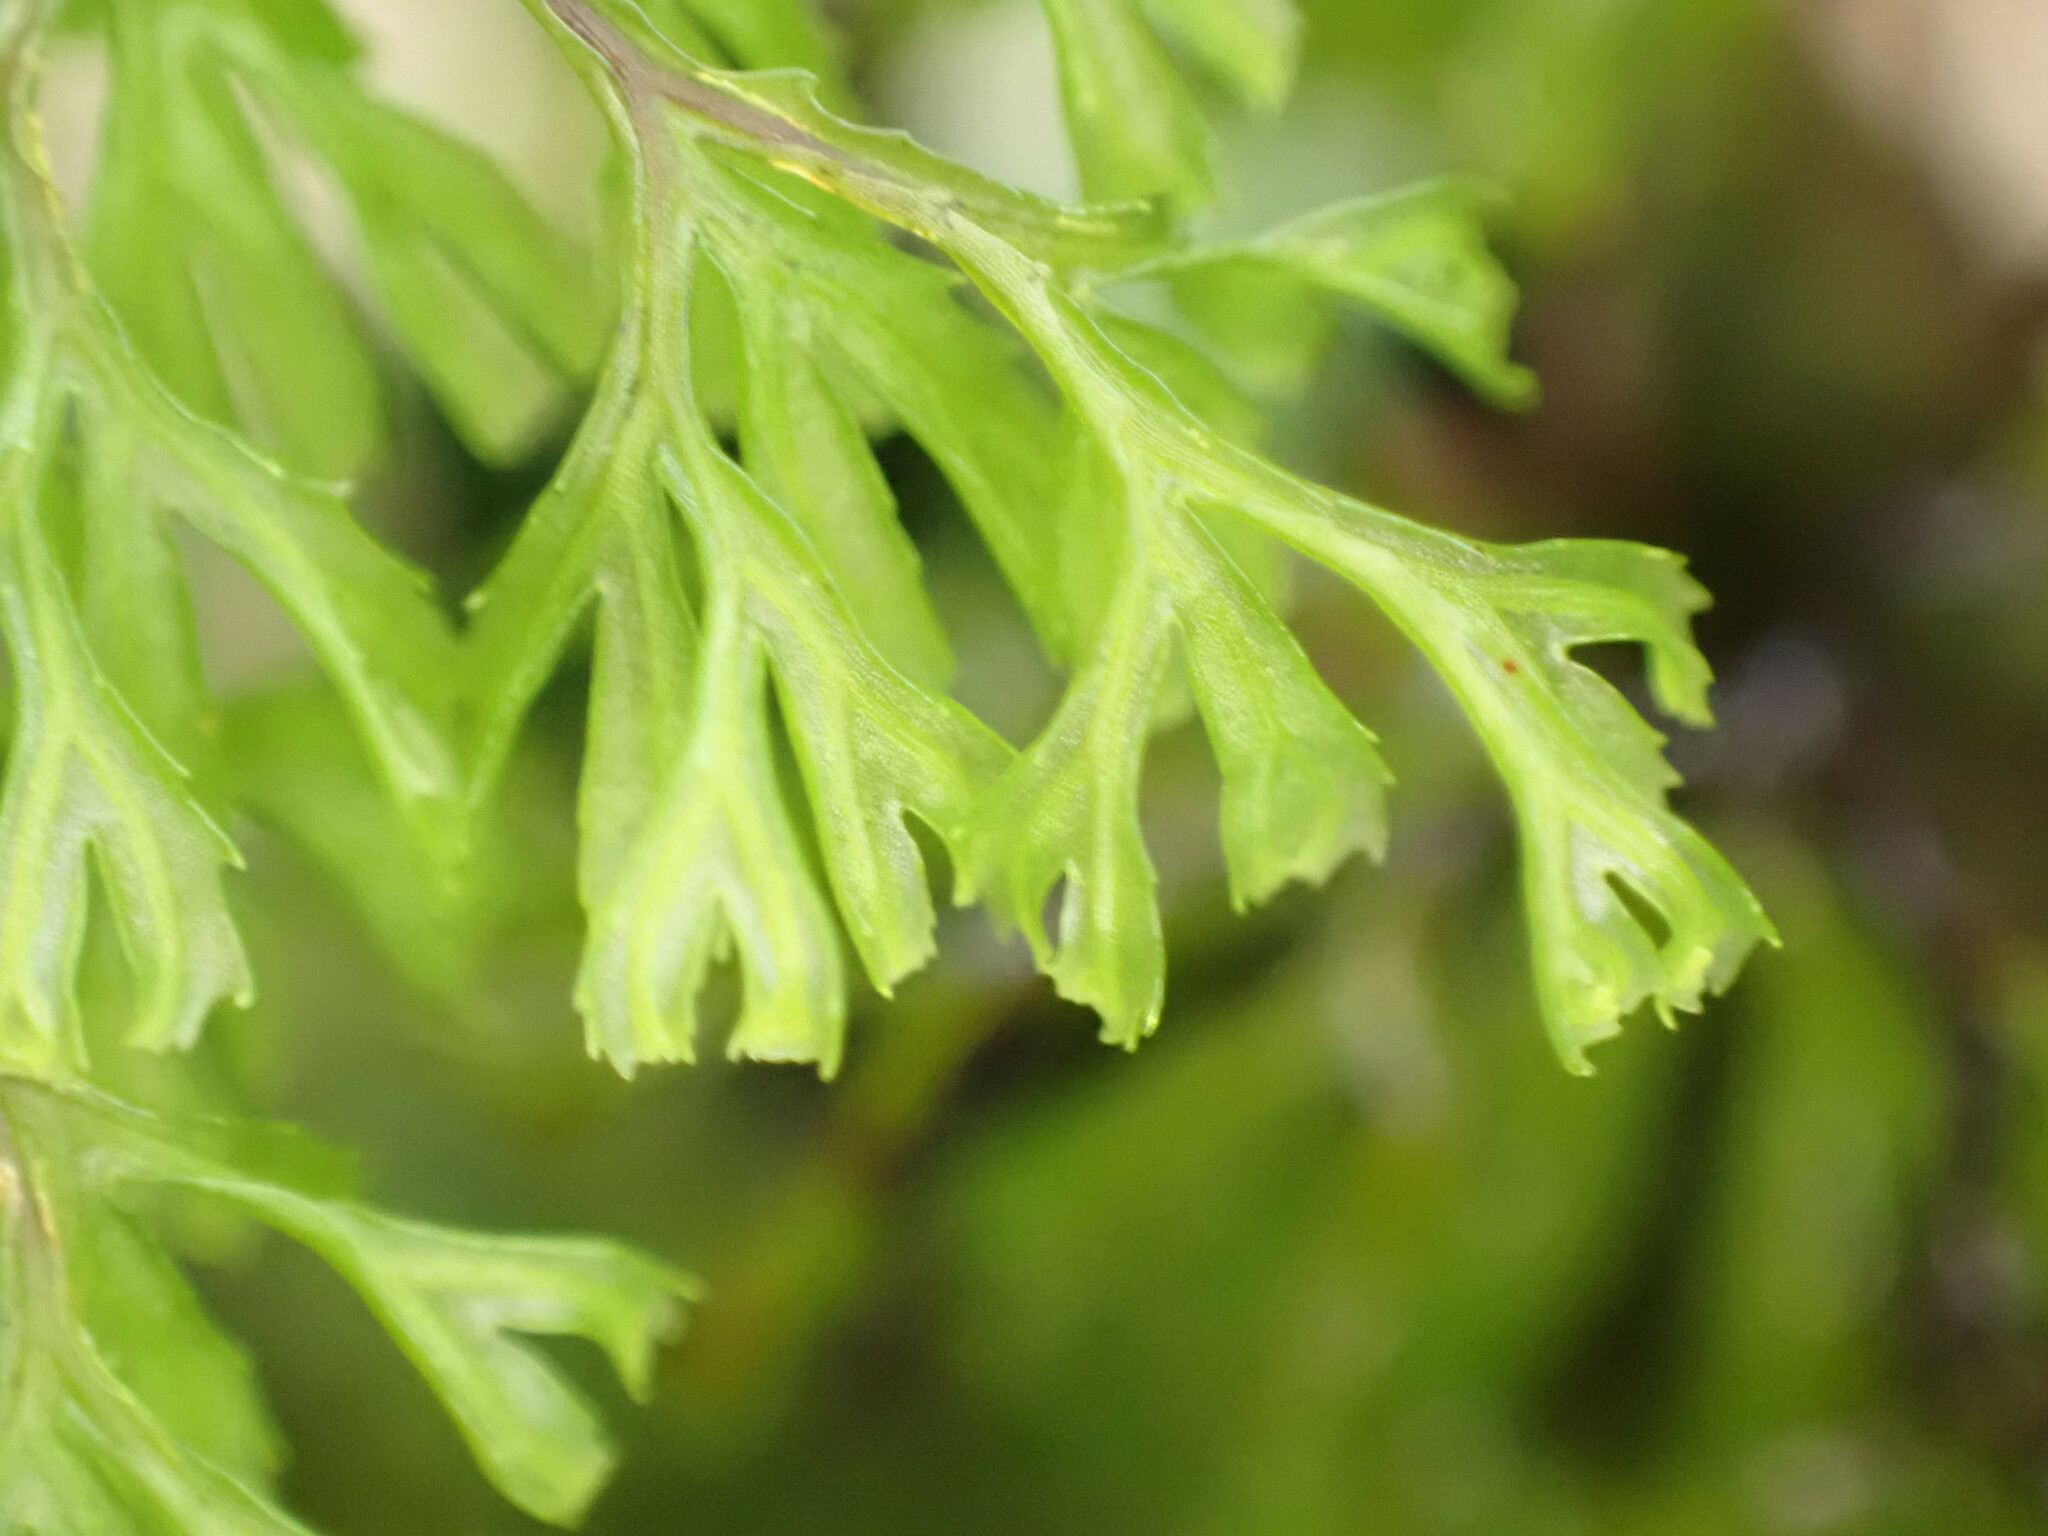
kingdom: Plantae
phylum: Tracheophyta
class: Polypodiopsida
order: Hymenophyllales
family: Hymenophyllaceae
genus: Hymenophyllum
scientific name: Hymenophyllum multifidum
